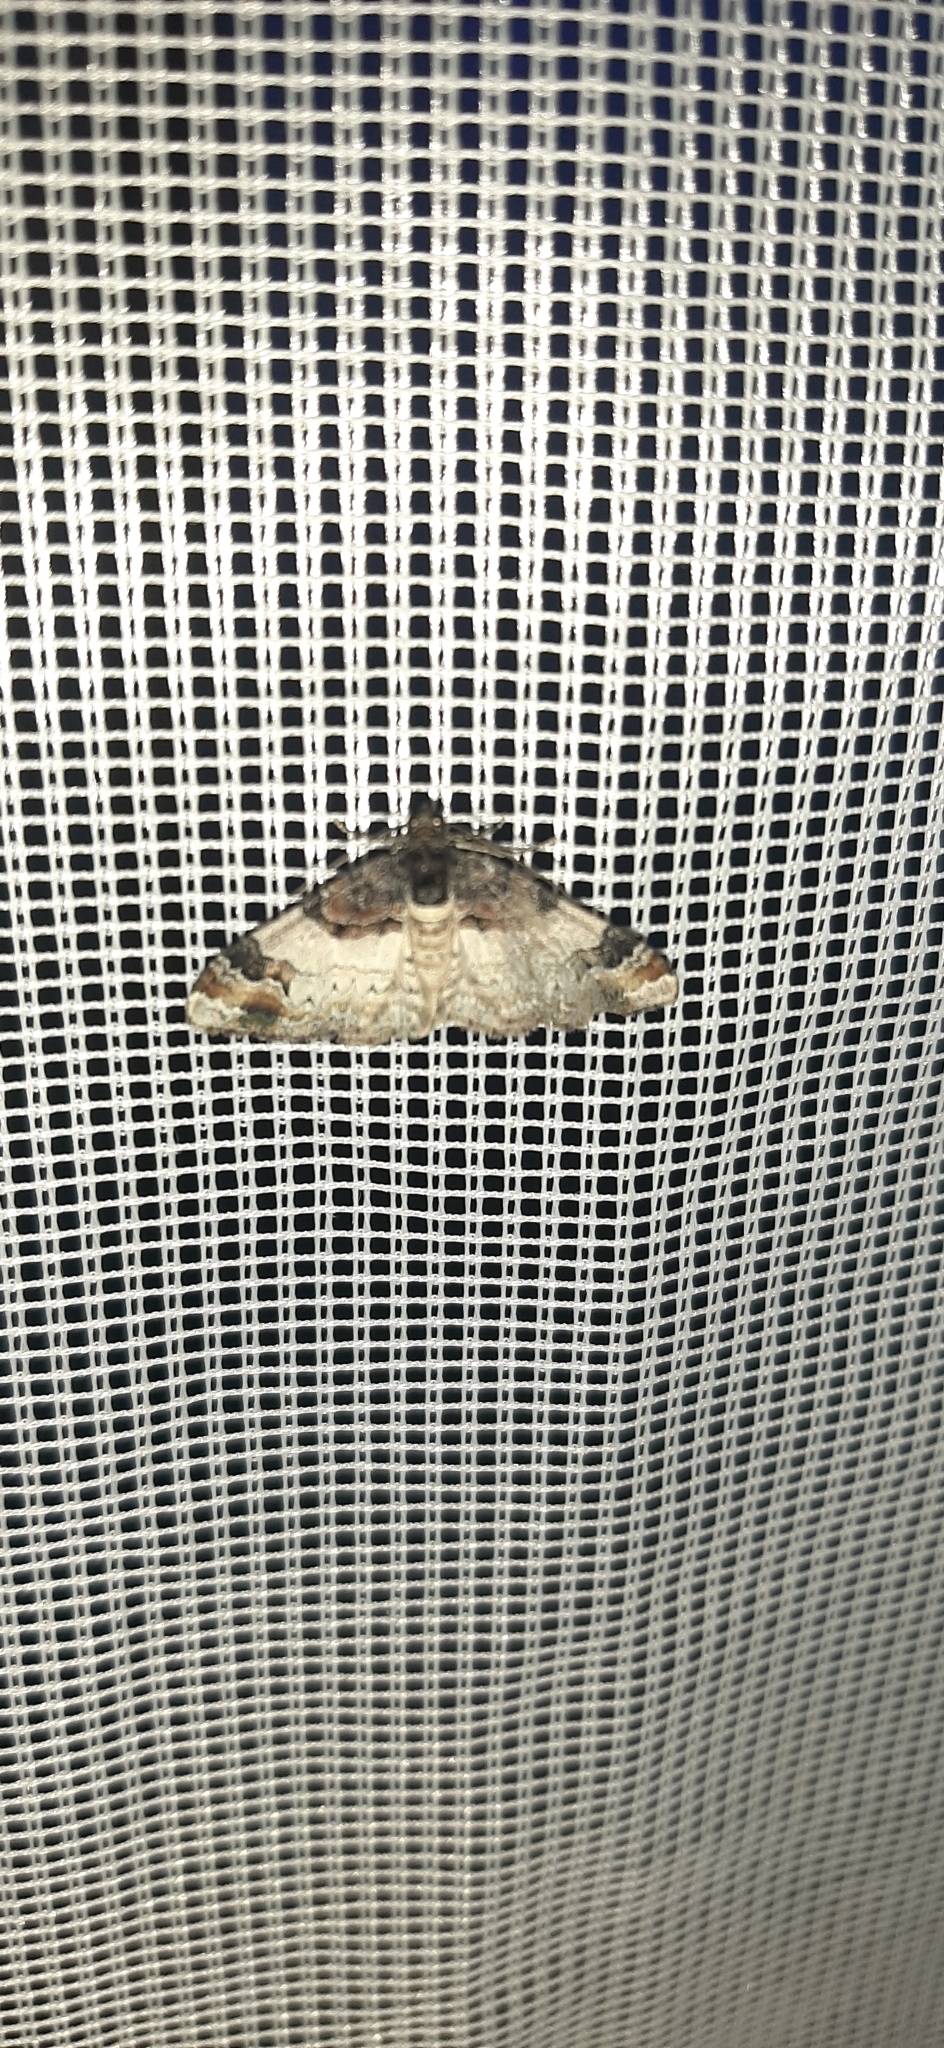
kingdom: Animalia
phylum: Arthropoda
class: Insecta
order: Lepidoptera
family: Geometridae
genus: Catarhoe
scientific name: Catarhoe cuculata
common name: Royal mantle
